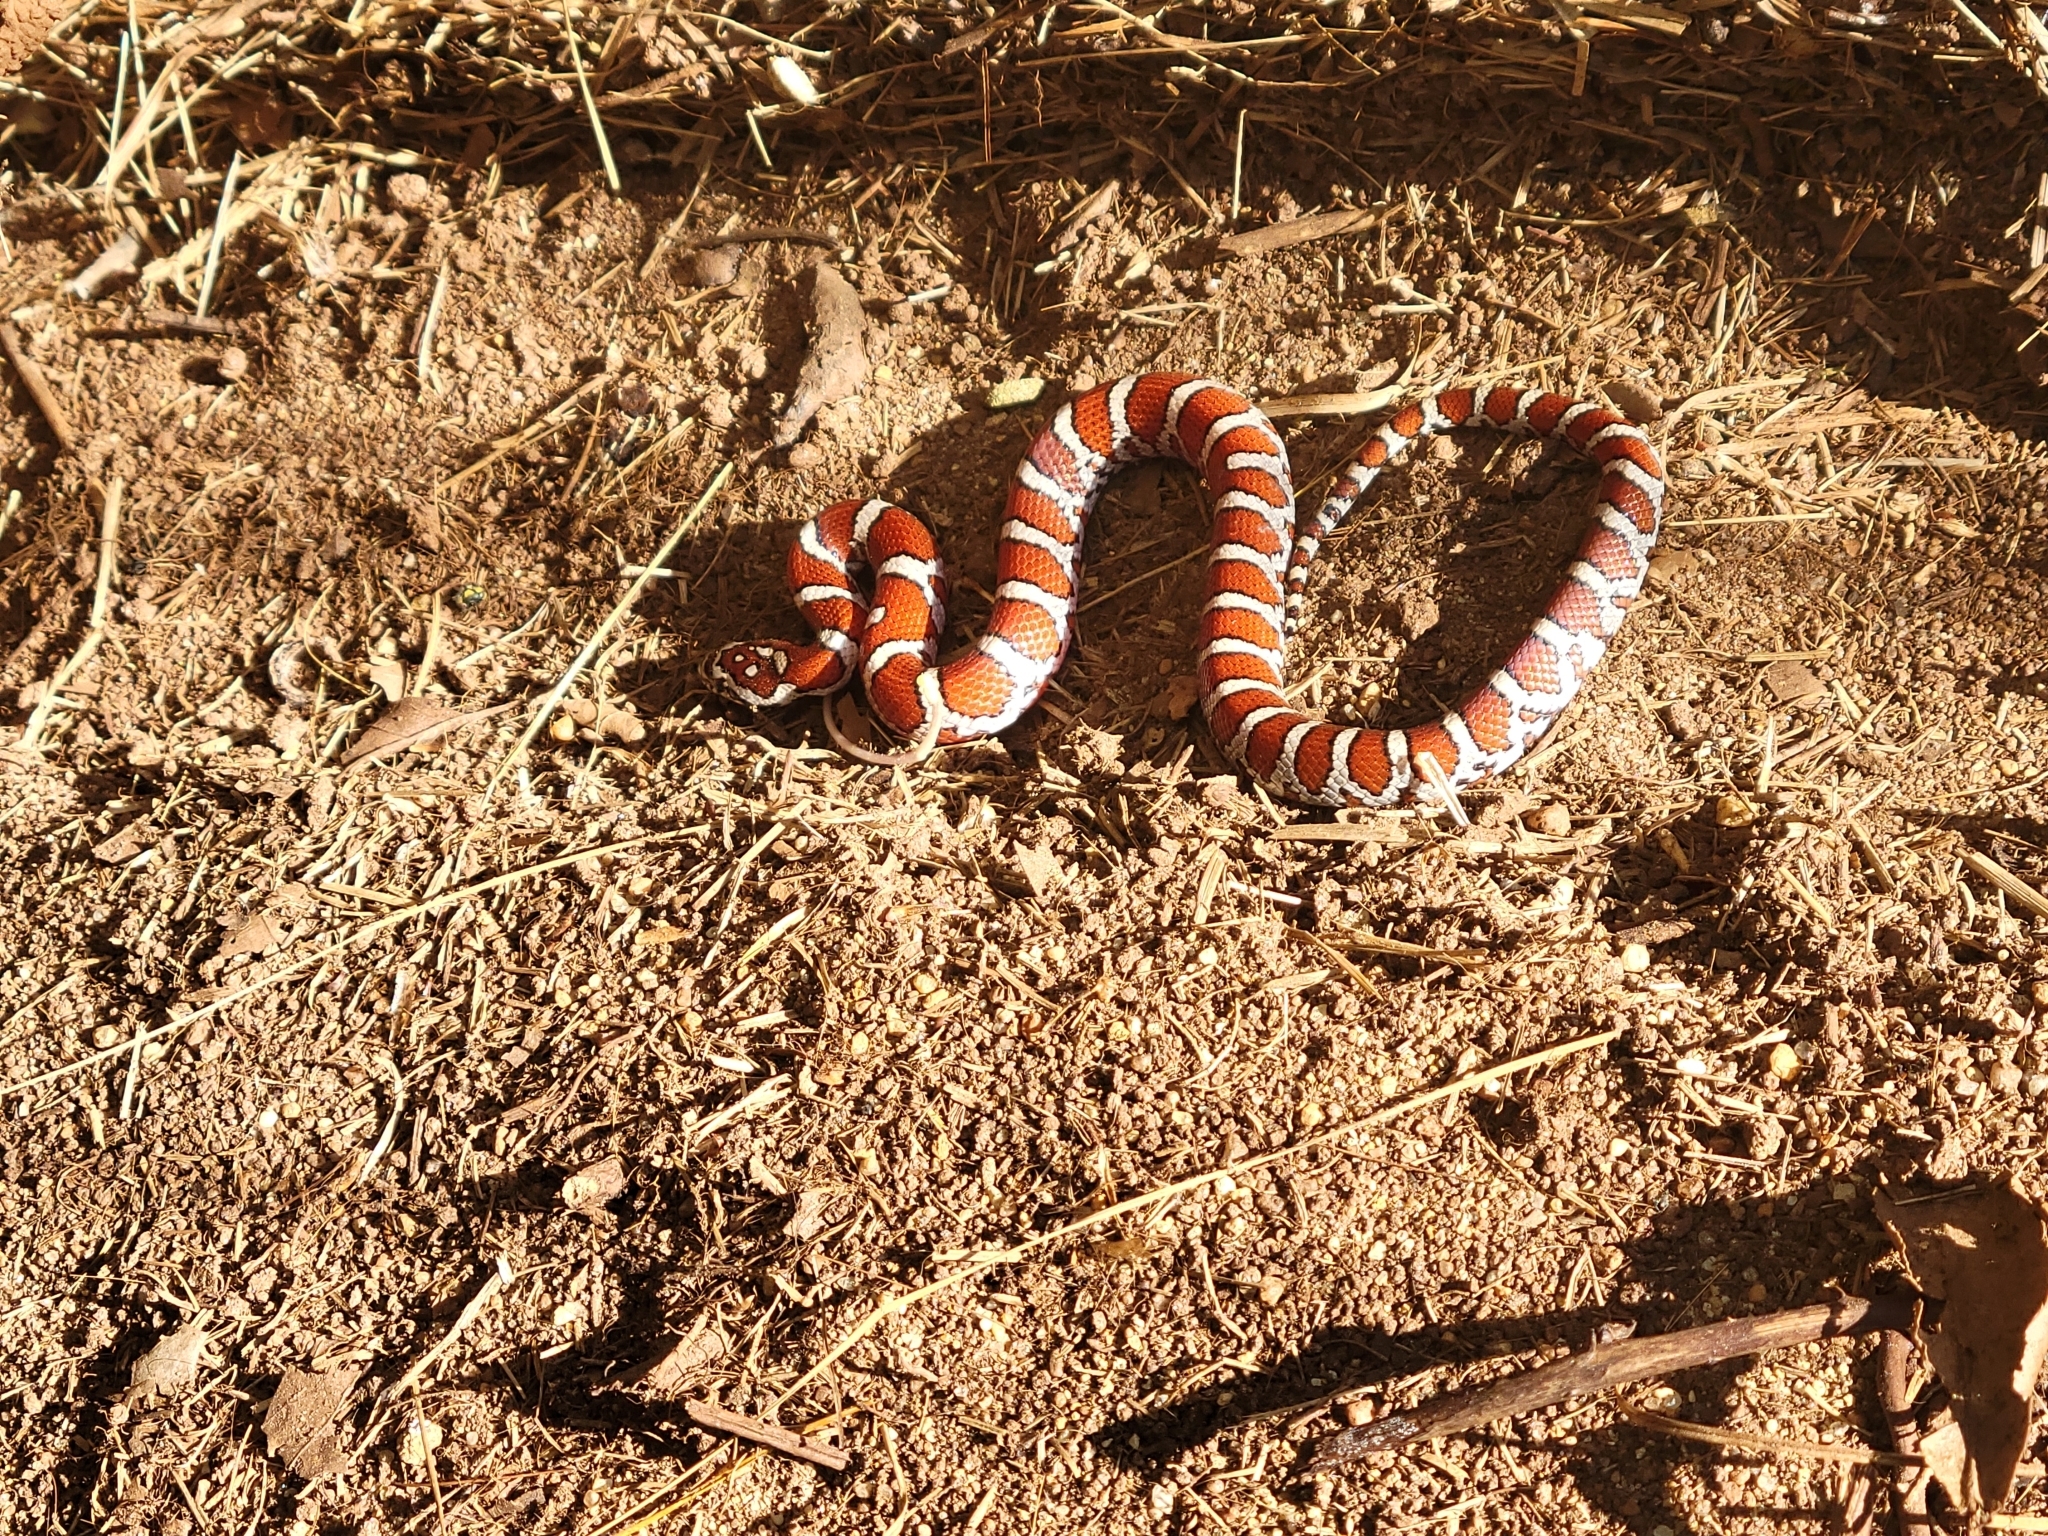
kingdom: Animalia
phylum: Chordata
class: Squamata
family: Colubridae
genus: Lampropeltis
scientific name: Lampropeltis triangulum
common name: Eastern milksnake
